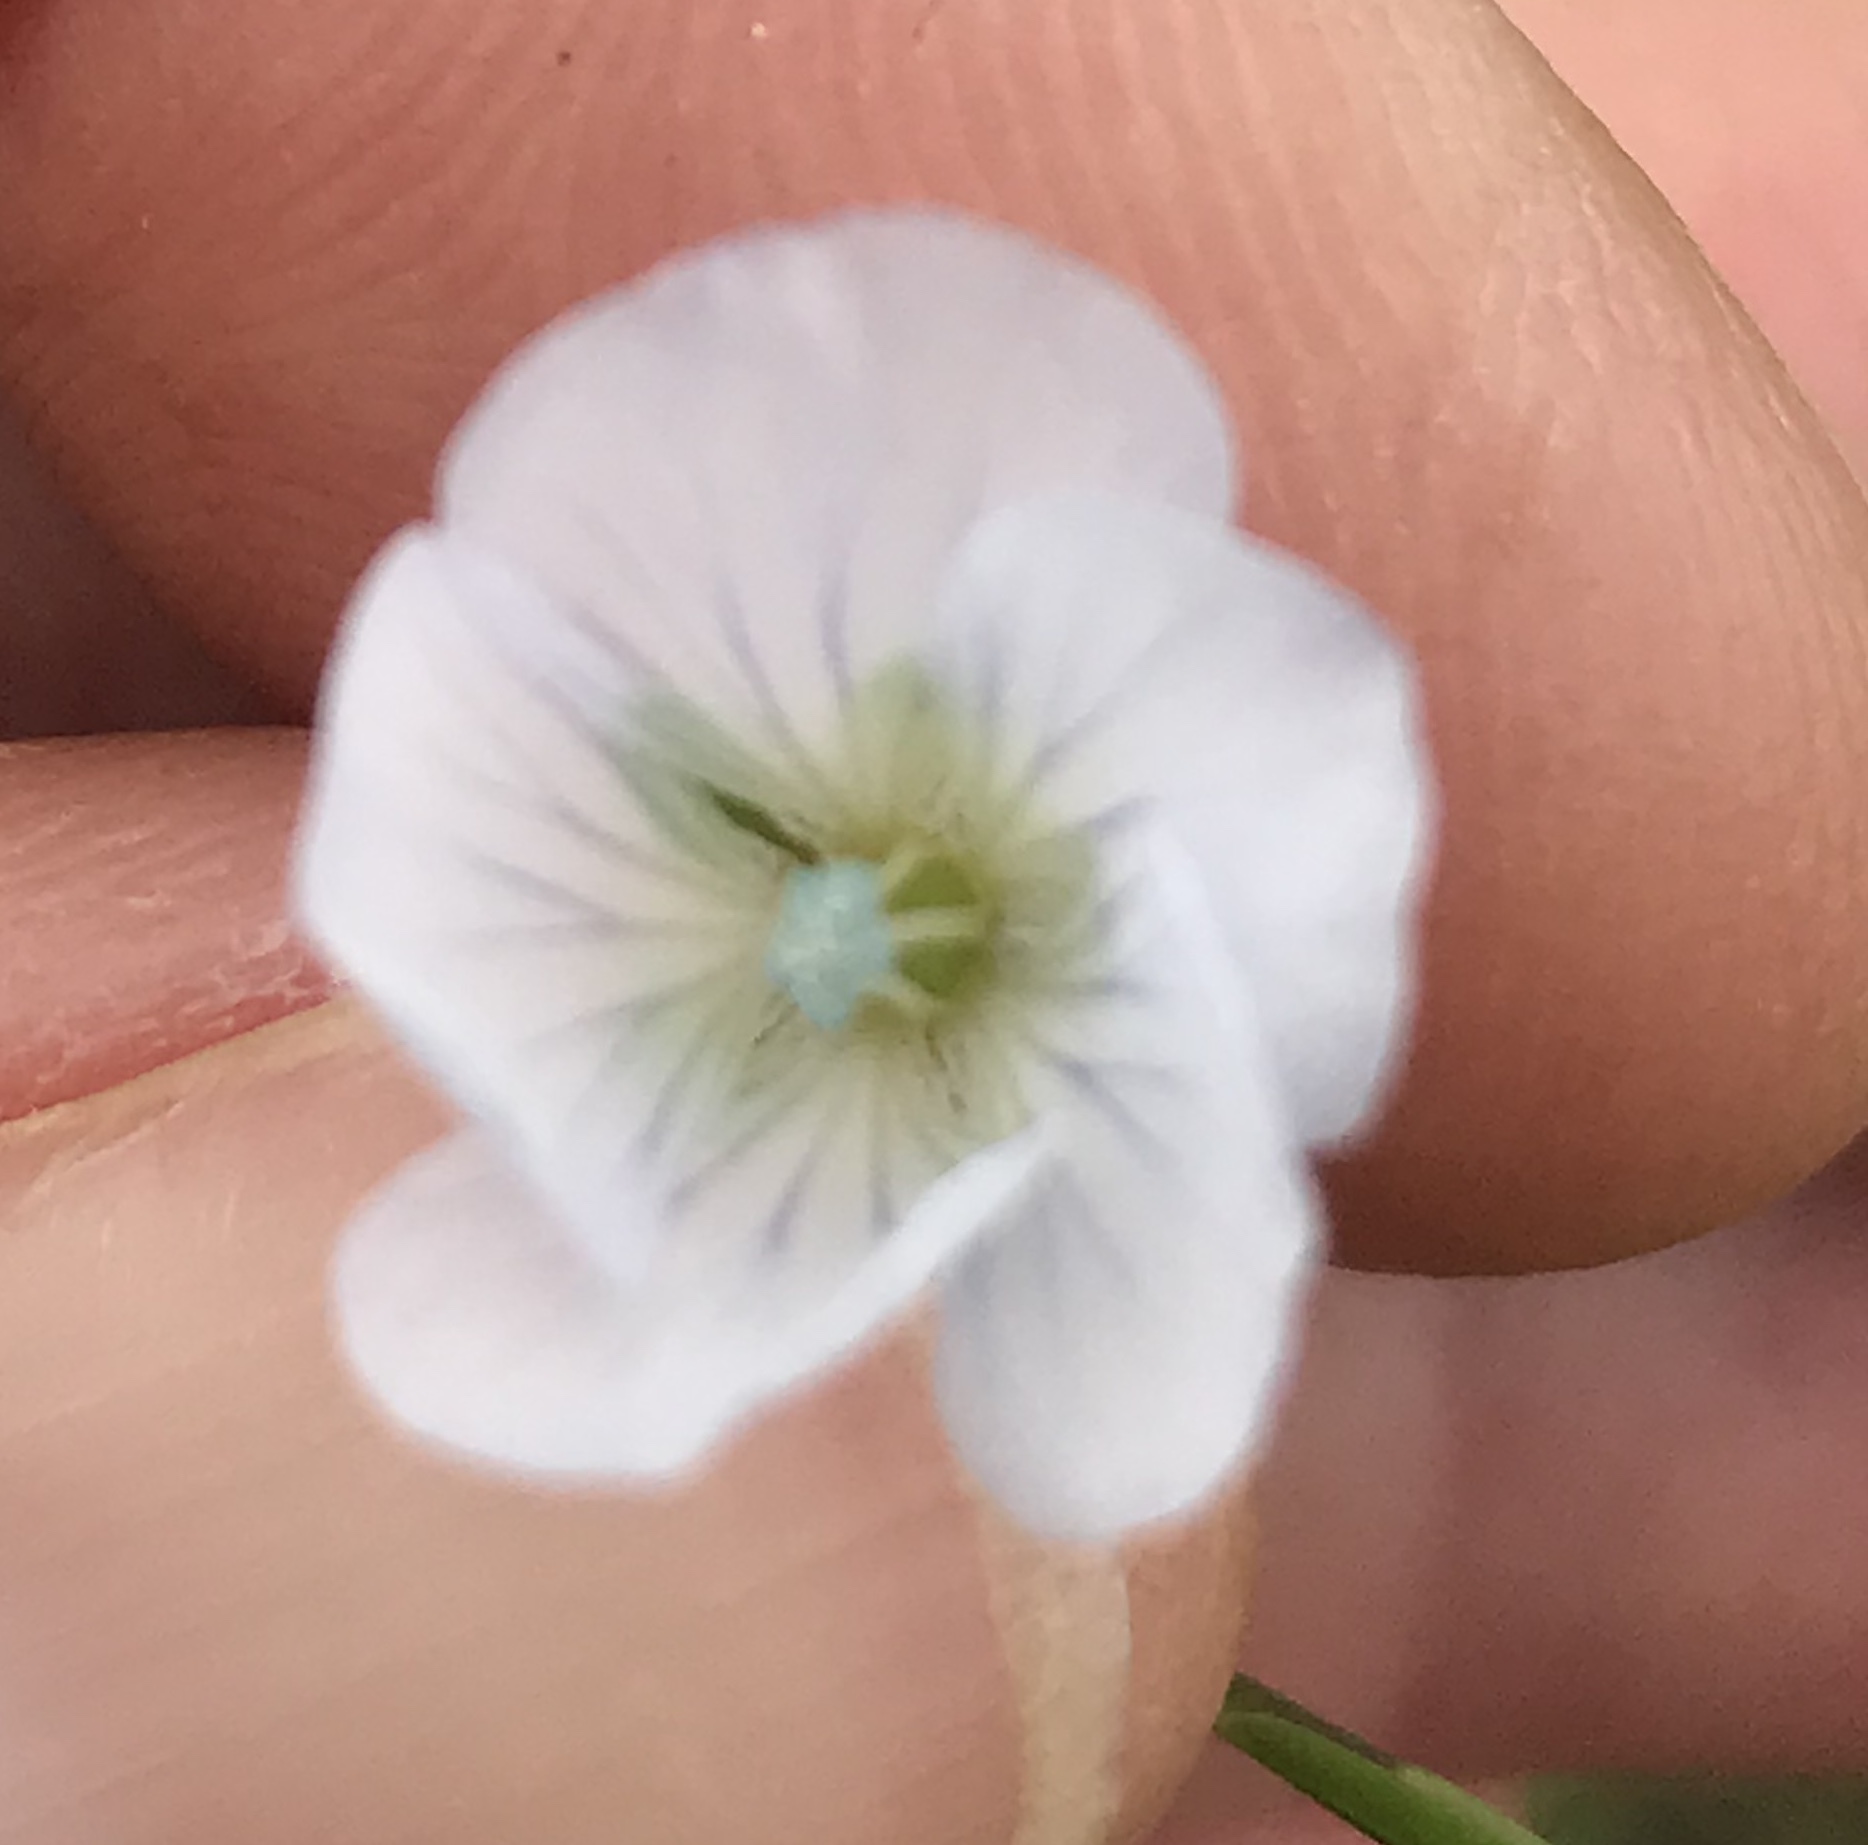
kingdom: Plantae
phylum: Tracheophyta
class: Magnoliopsida
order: Malpighiales
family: Linaceae
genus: Linum
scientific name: Linum bienne
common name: Pale flax
